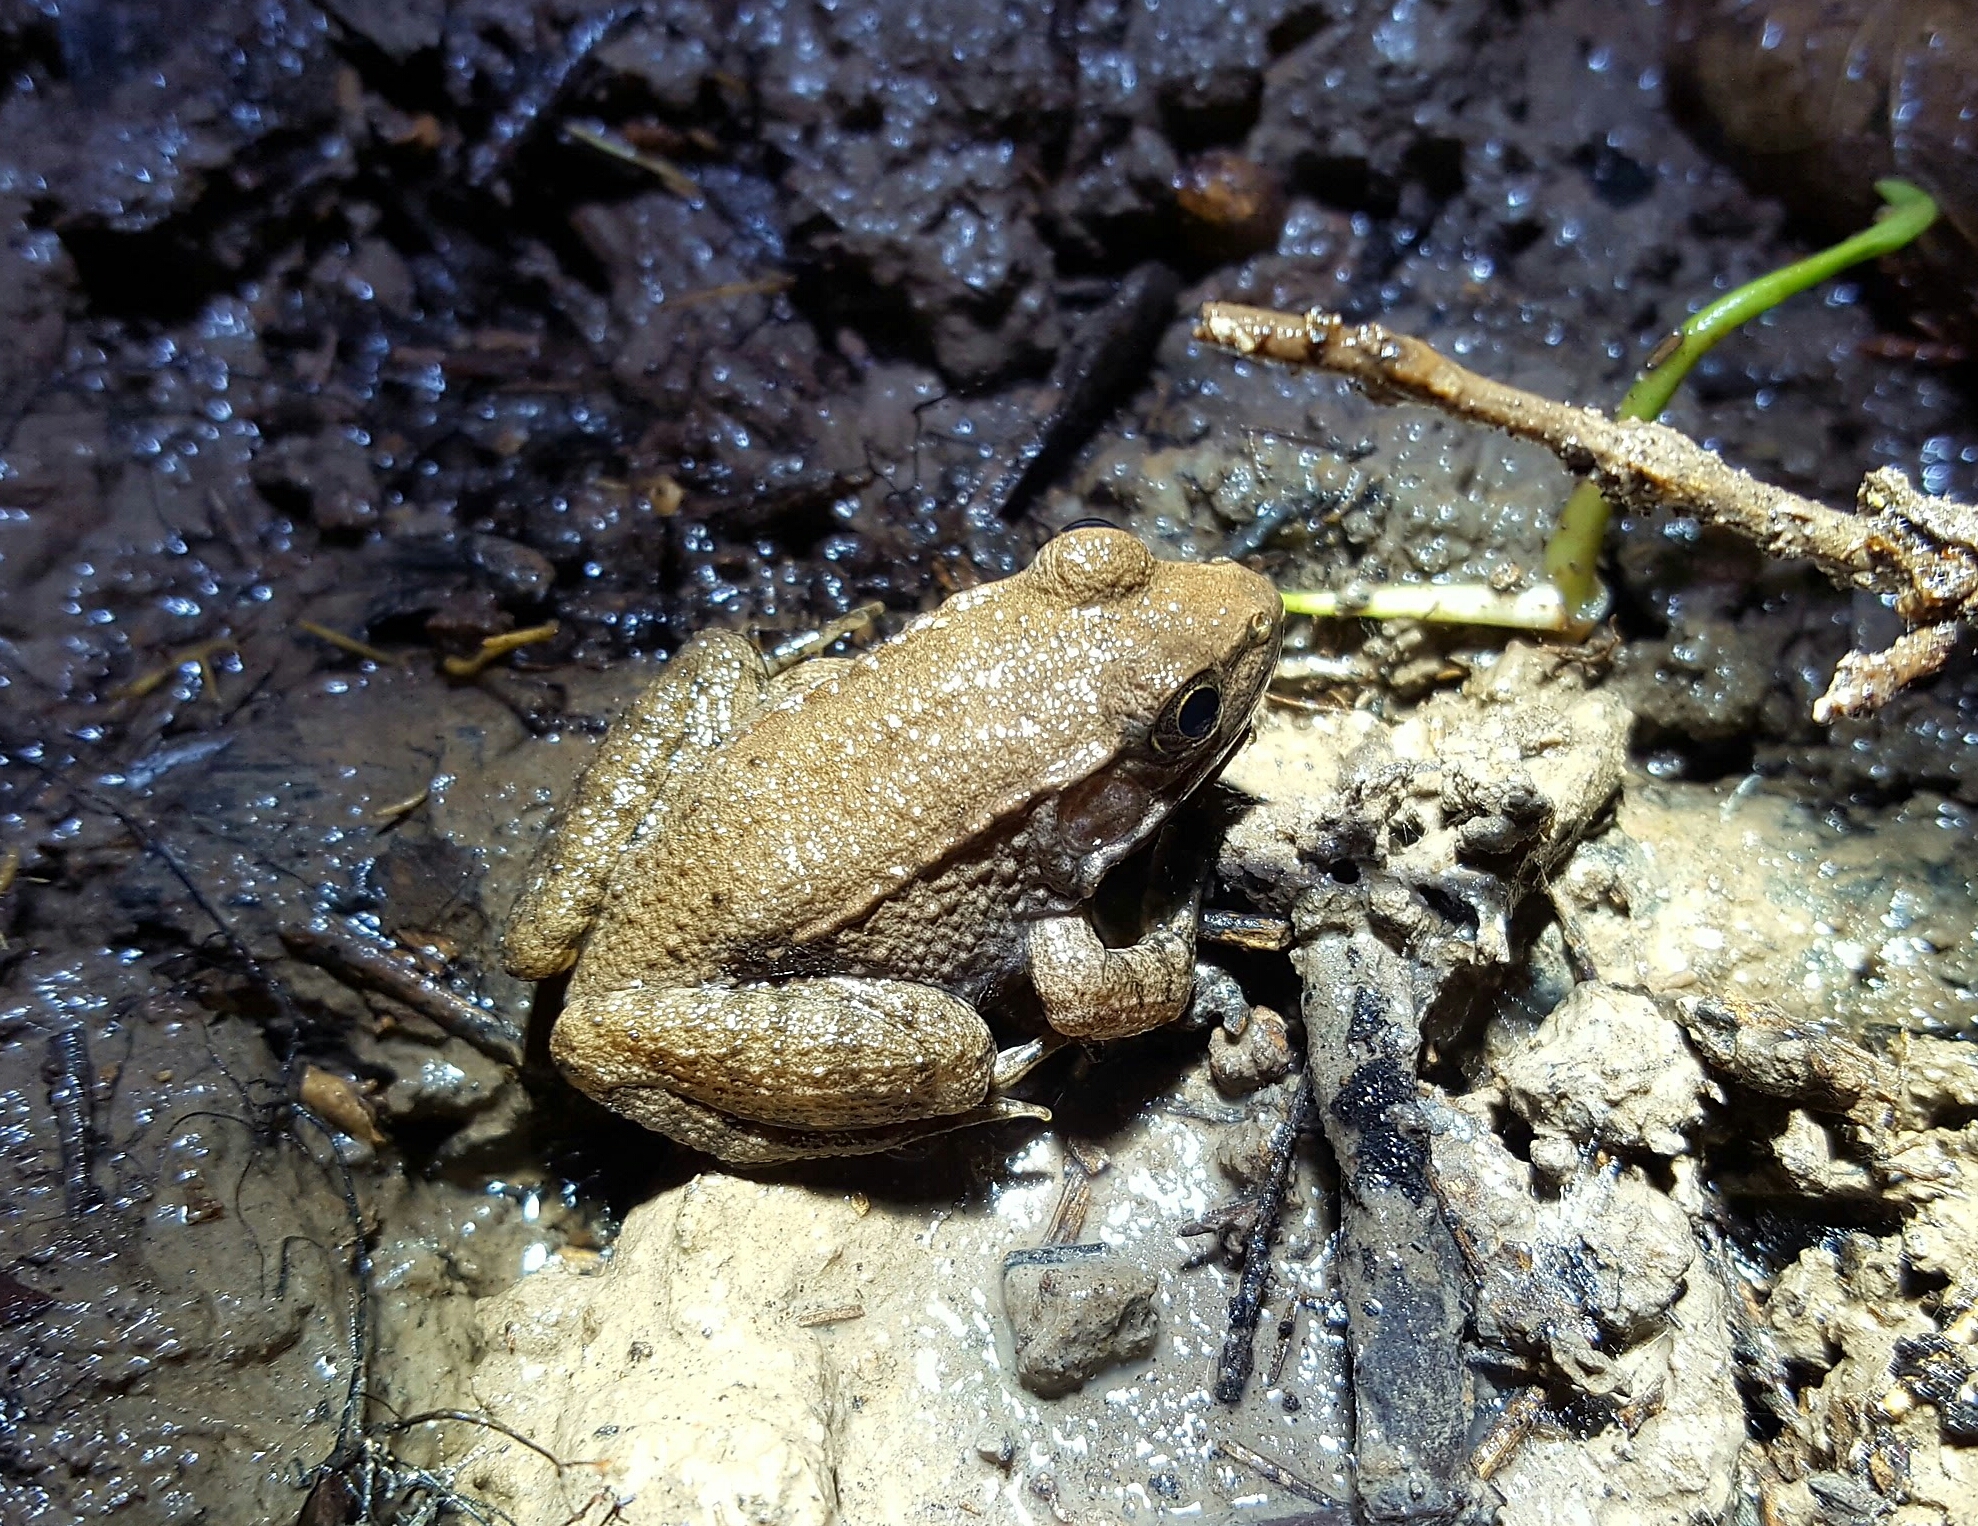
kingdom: Animalia
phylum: Chordata
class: Amphibia
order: Anura
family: Ranidae
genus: Lithobates
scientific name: Lithobates clamitans
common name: Green frog
